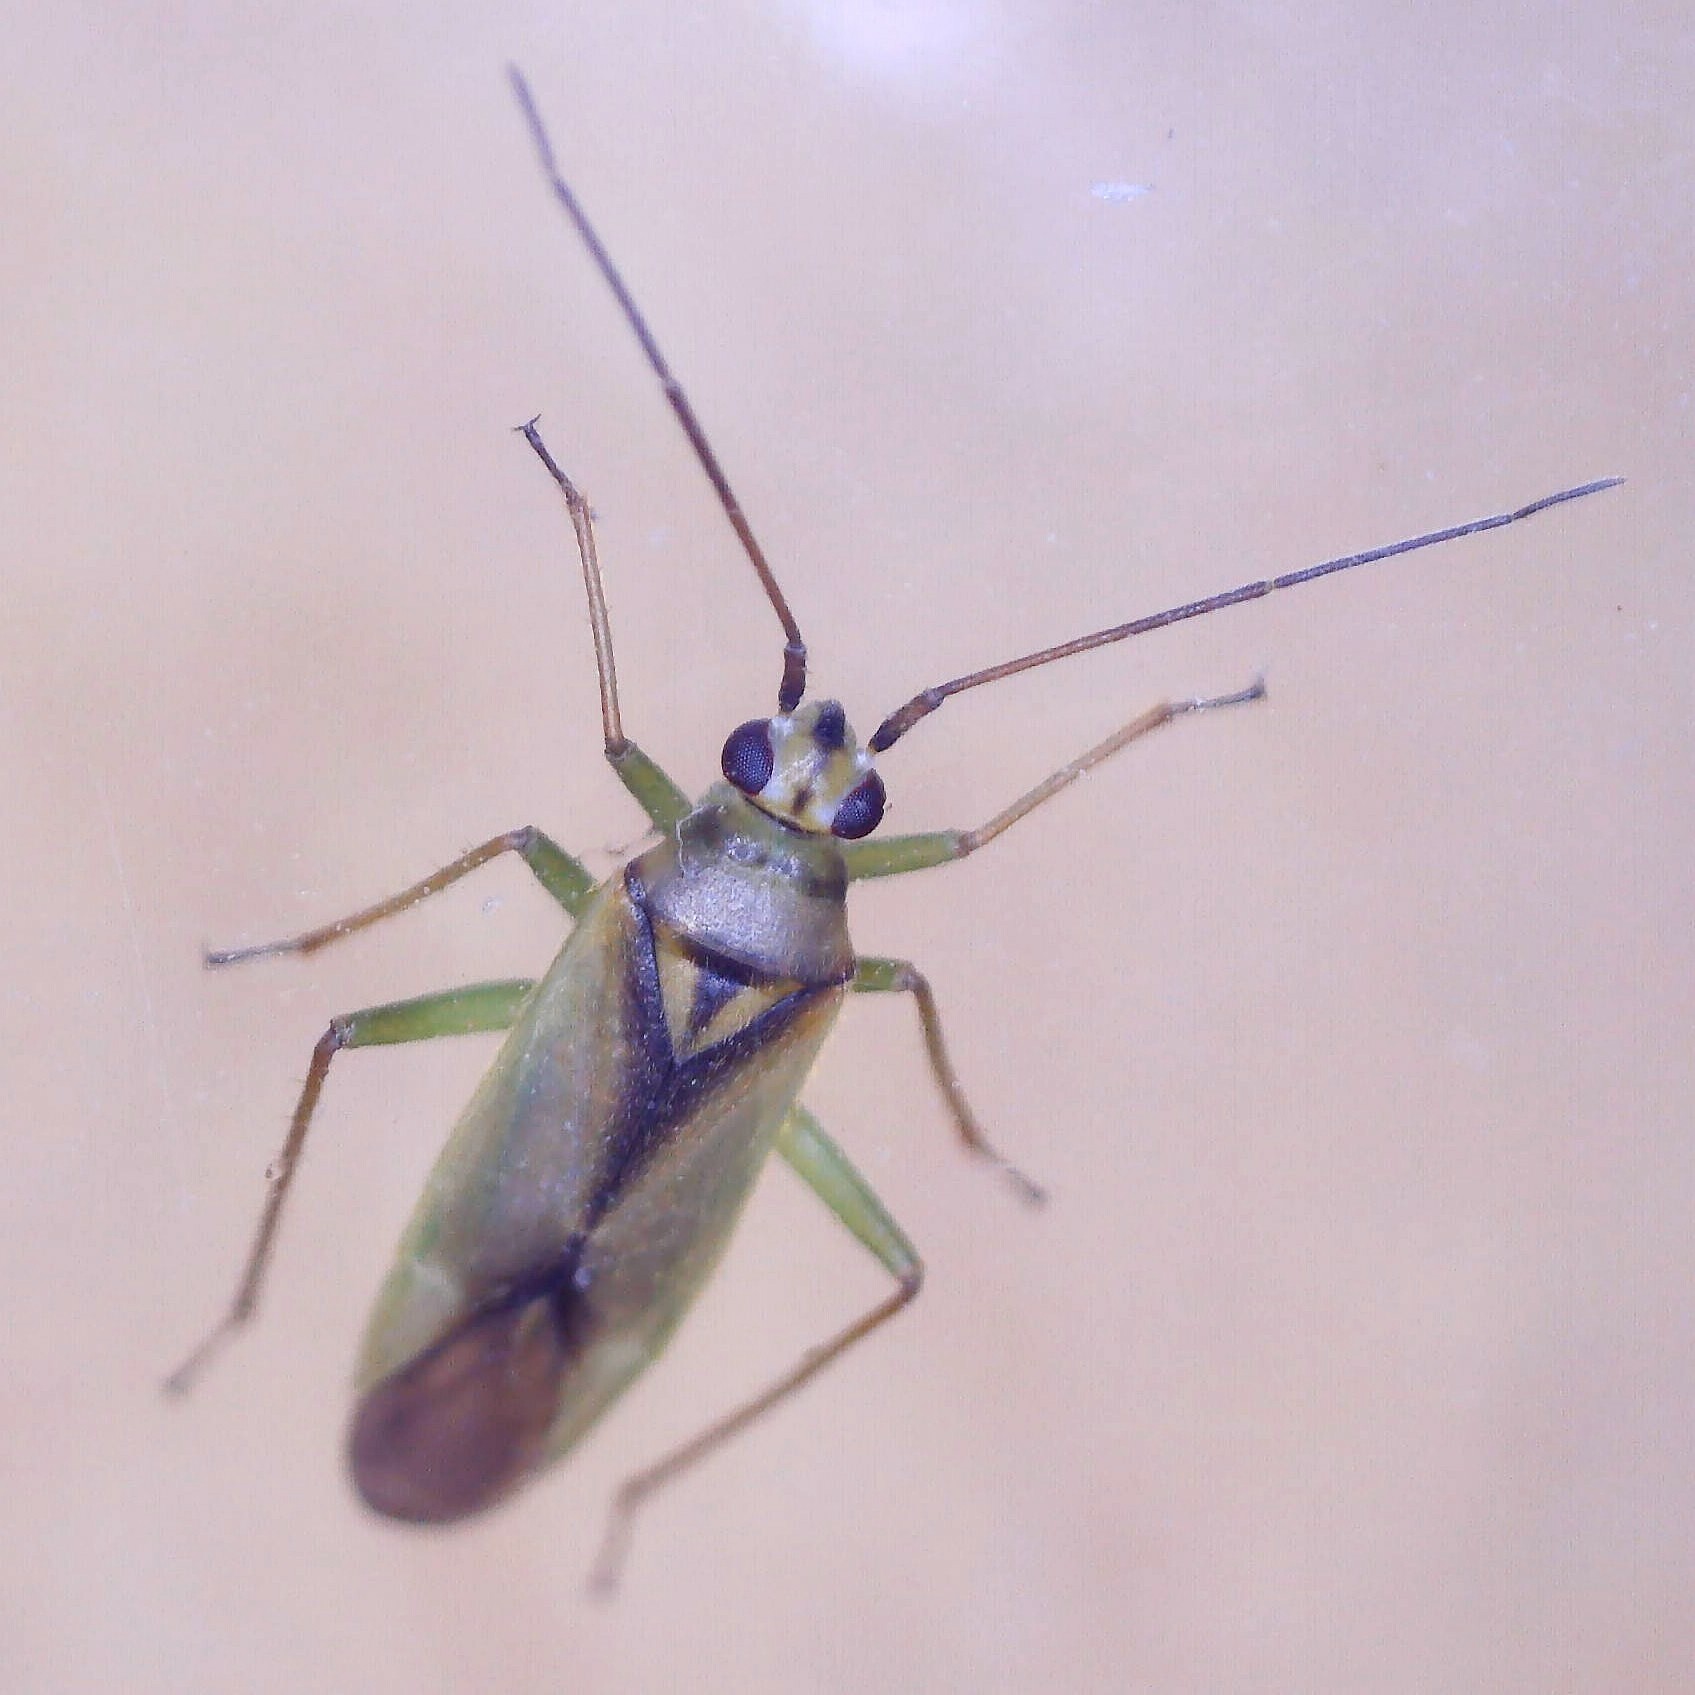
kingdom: Animalia
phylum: Arthropoda
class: Insecta
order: Hemiptera
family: Miridae
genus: Orthotylus
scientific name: Orthotylus bilineatus
